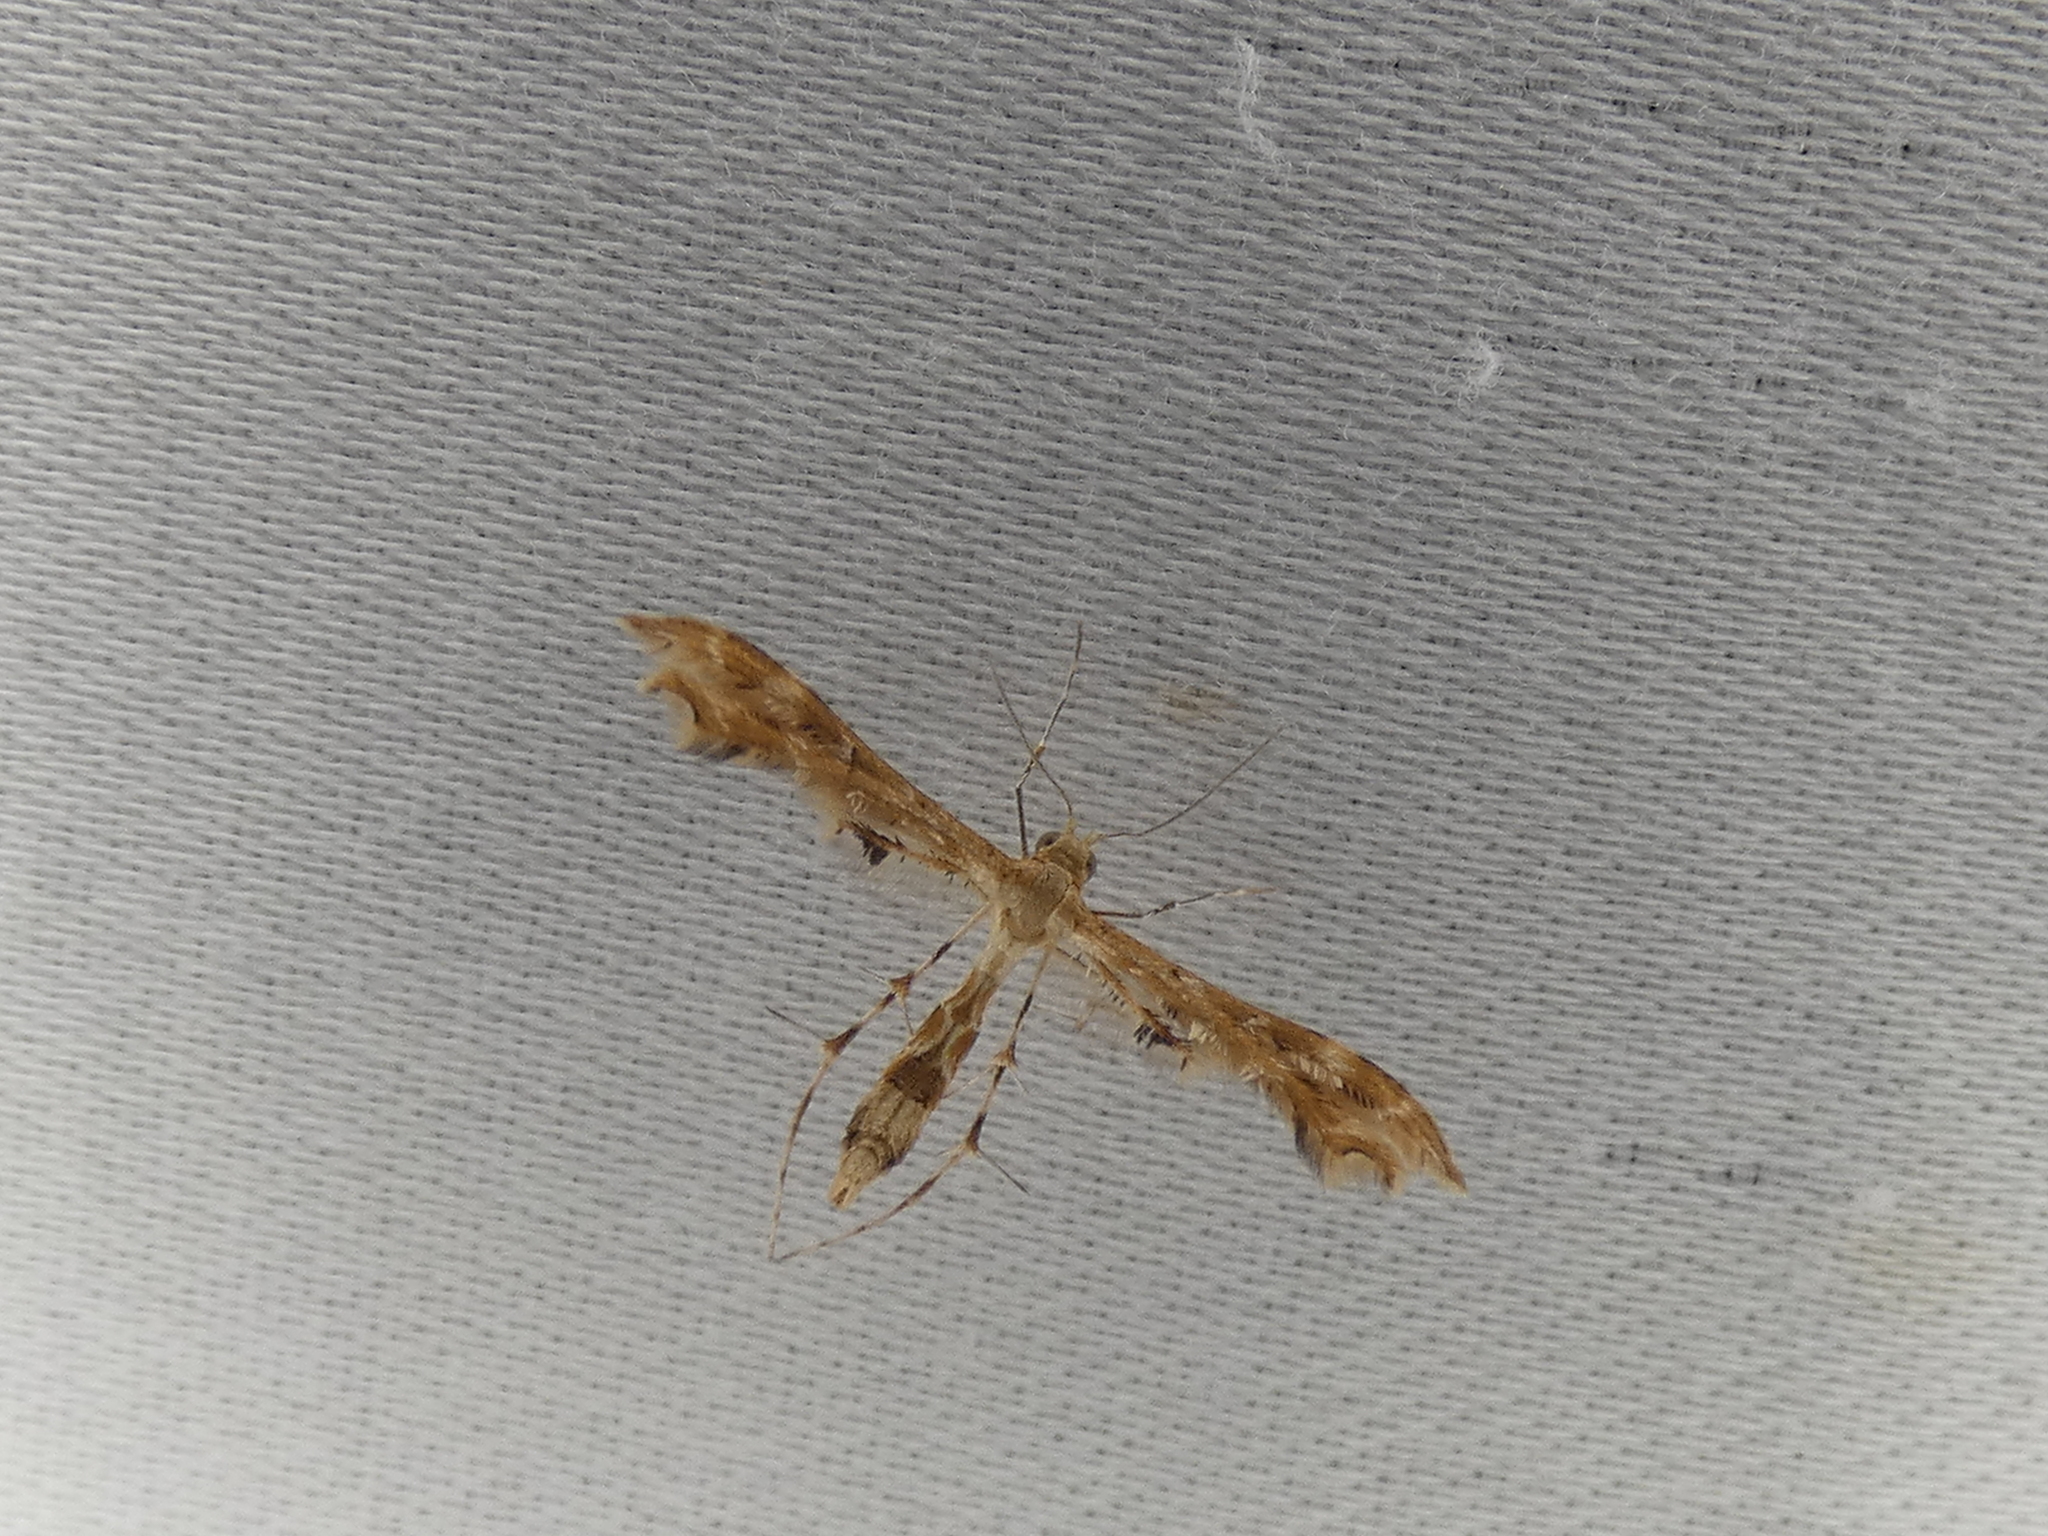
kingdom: Animalia
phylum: Arthropoda
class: Insecta
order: Lepidoptera
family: Pterophoridae
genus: Sphenarches
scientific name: Sphenarches anisodactylus
